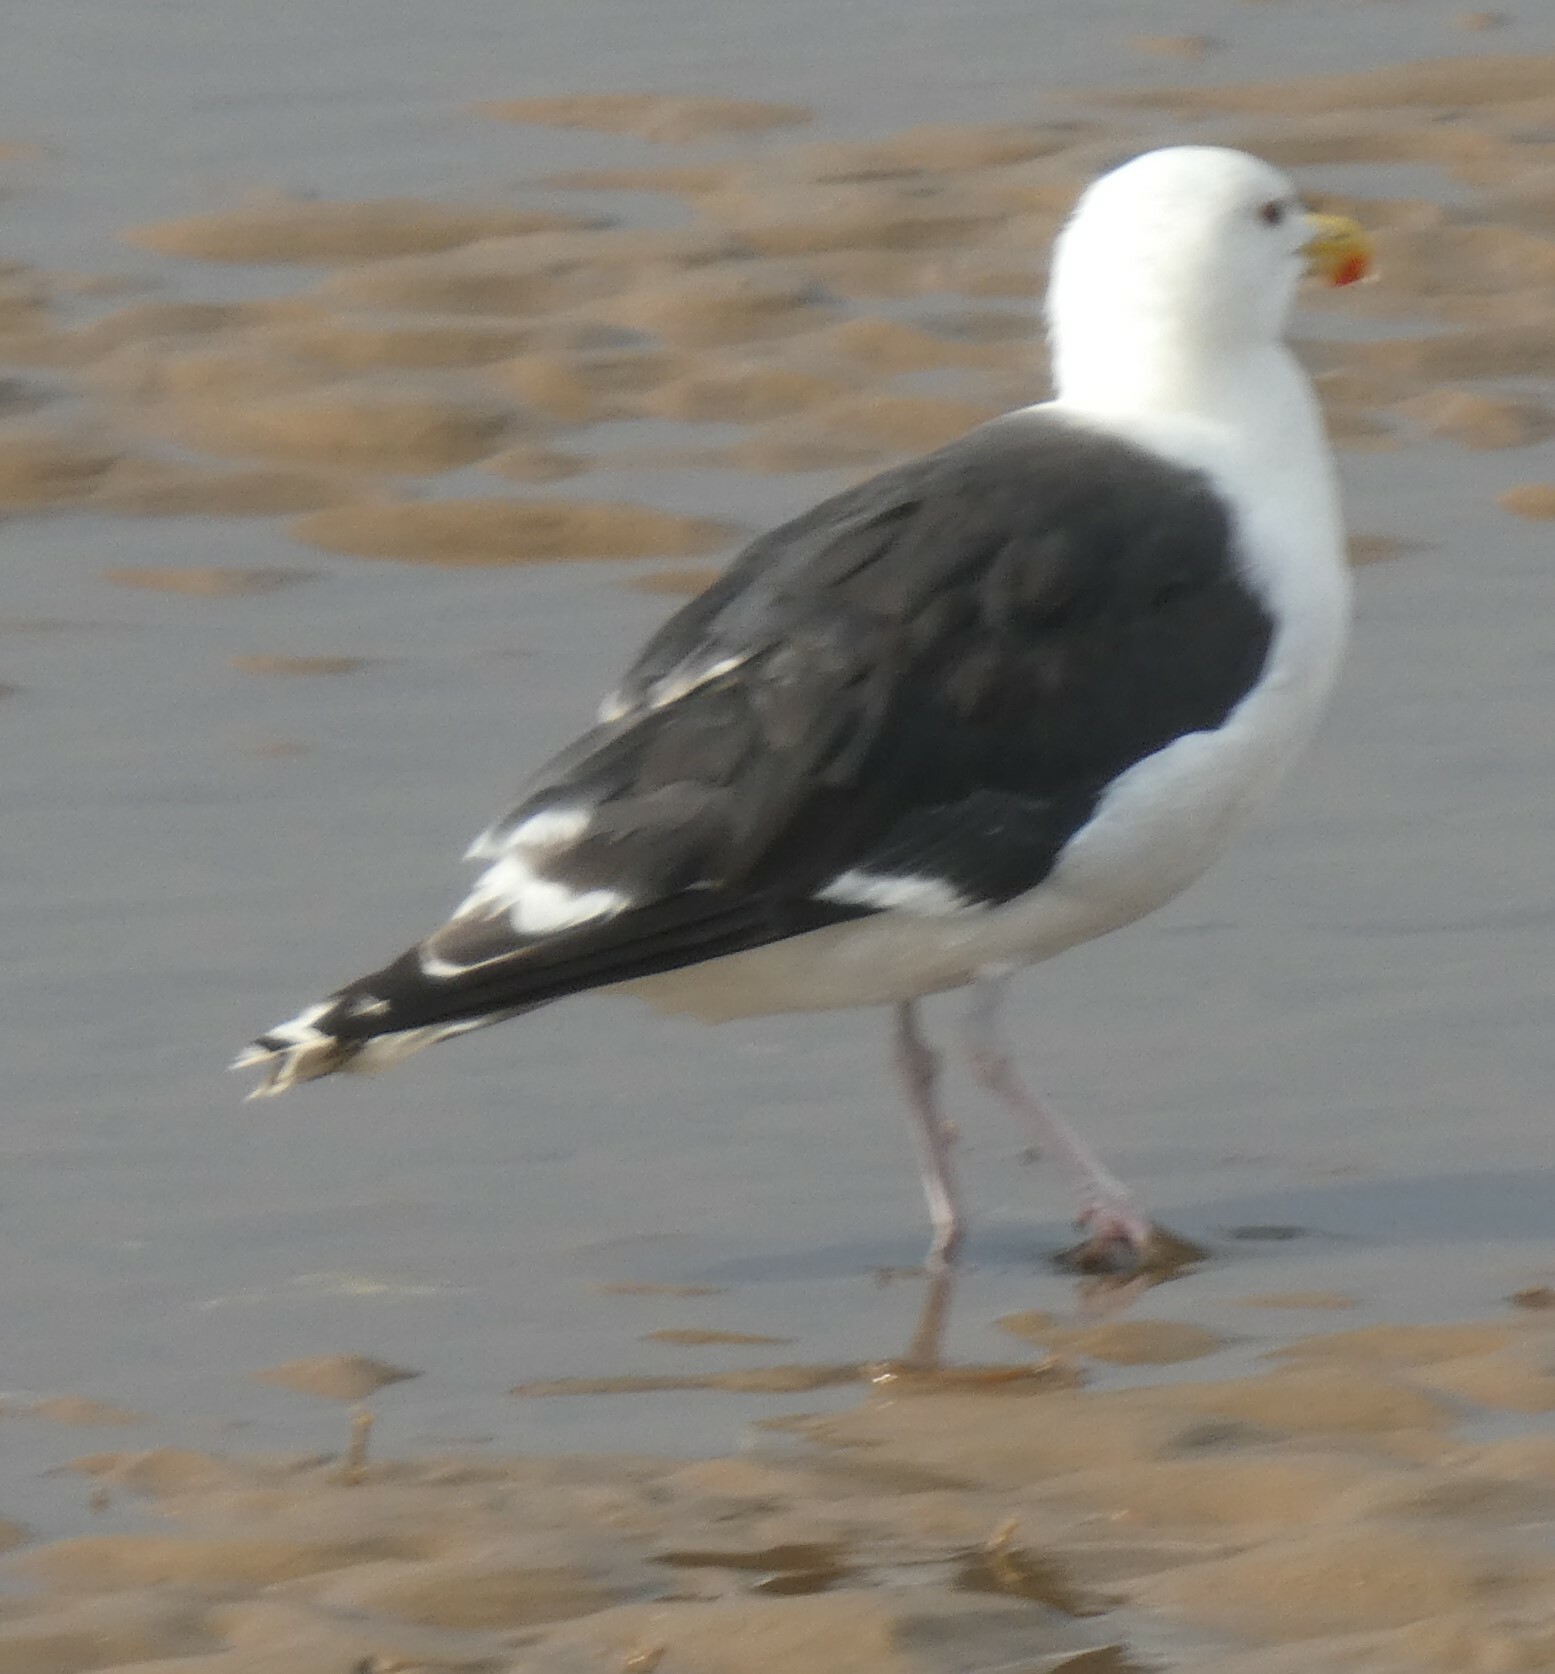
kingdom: Animalia
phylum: Chordata
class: Aves
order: Charadriiformes
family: Laridae
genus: Larus
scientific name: Larus marinus
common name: Great black-backed gull
